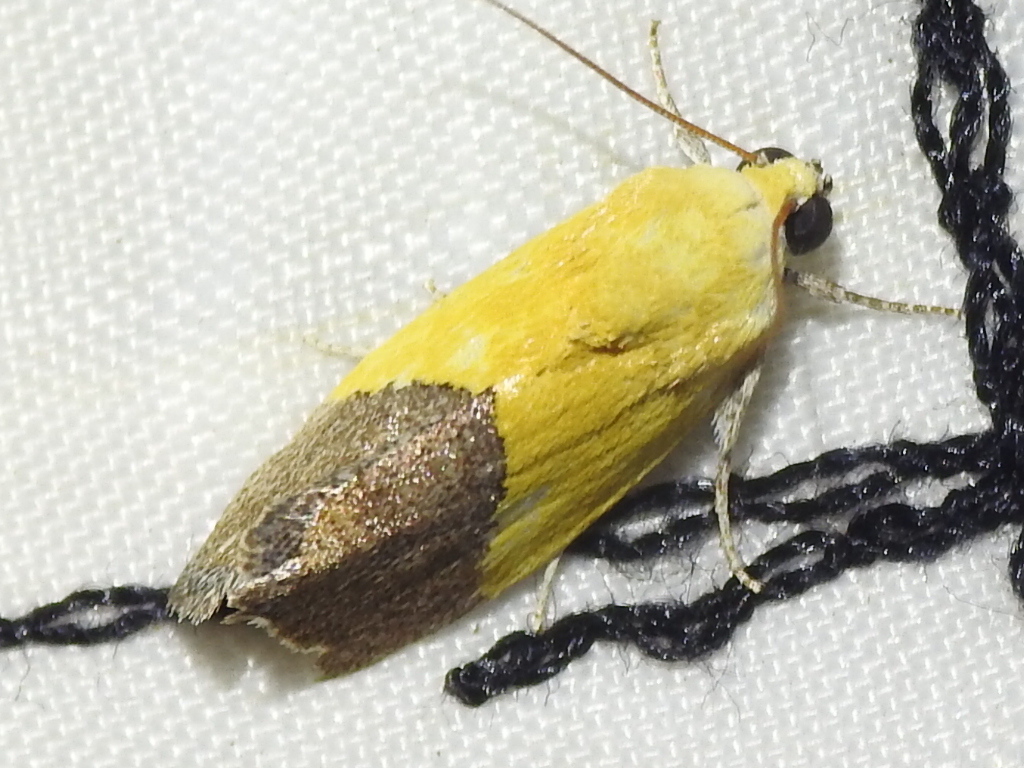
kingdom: Animalia
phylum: Arthropoda
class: Insecta
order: Lepidoptera
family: Noctuidae
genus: Acontia
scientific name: Acontia semiflava
